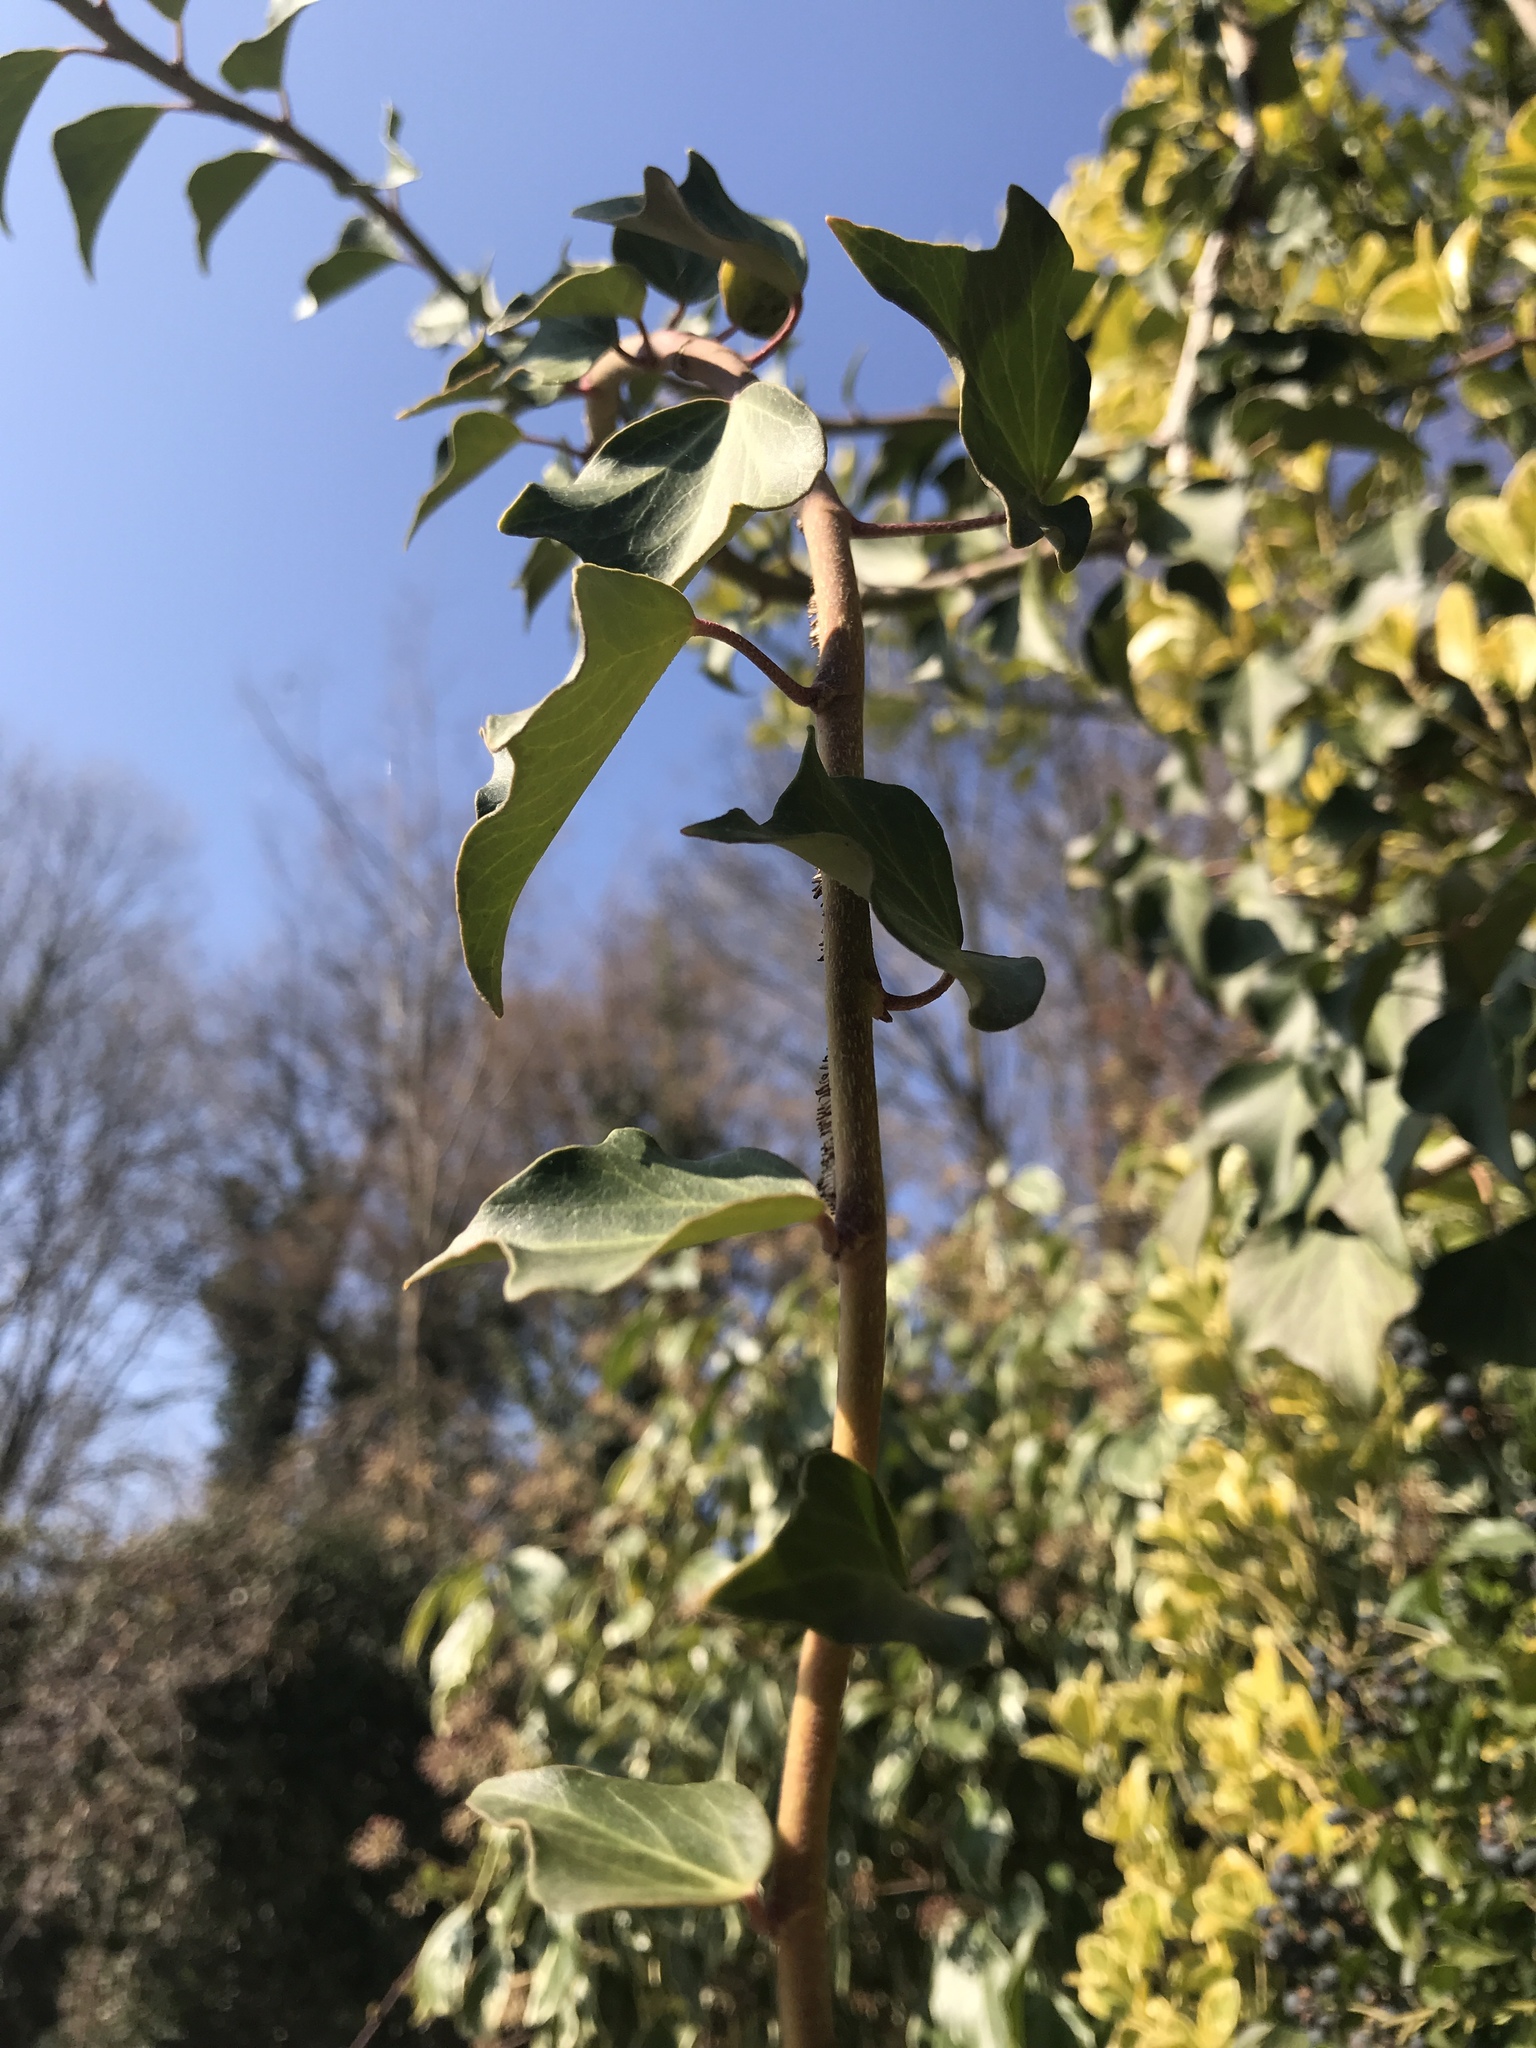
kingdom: Plantae
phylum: Tracheophyta
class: Magnoliopsida
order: Apiales
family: Araliaceae
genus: Hedera
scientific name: Hedera helix
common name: Ivy
